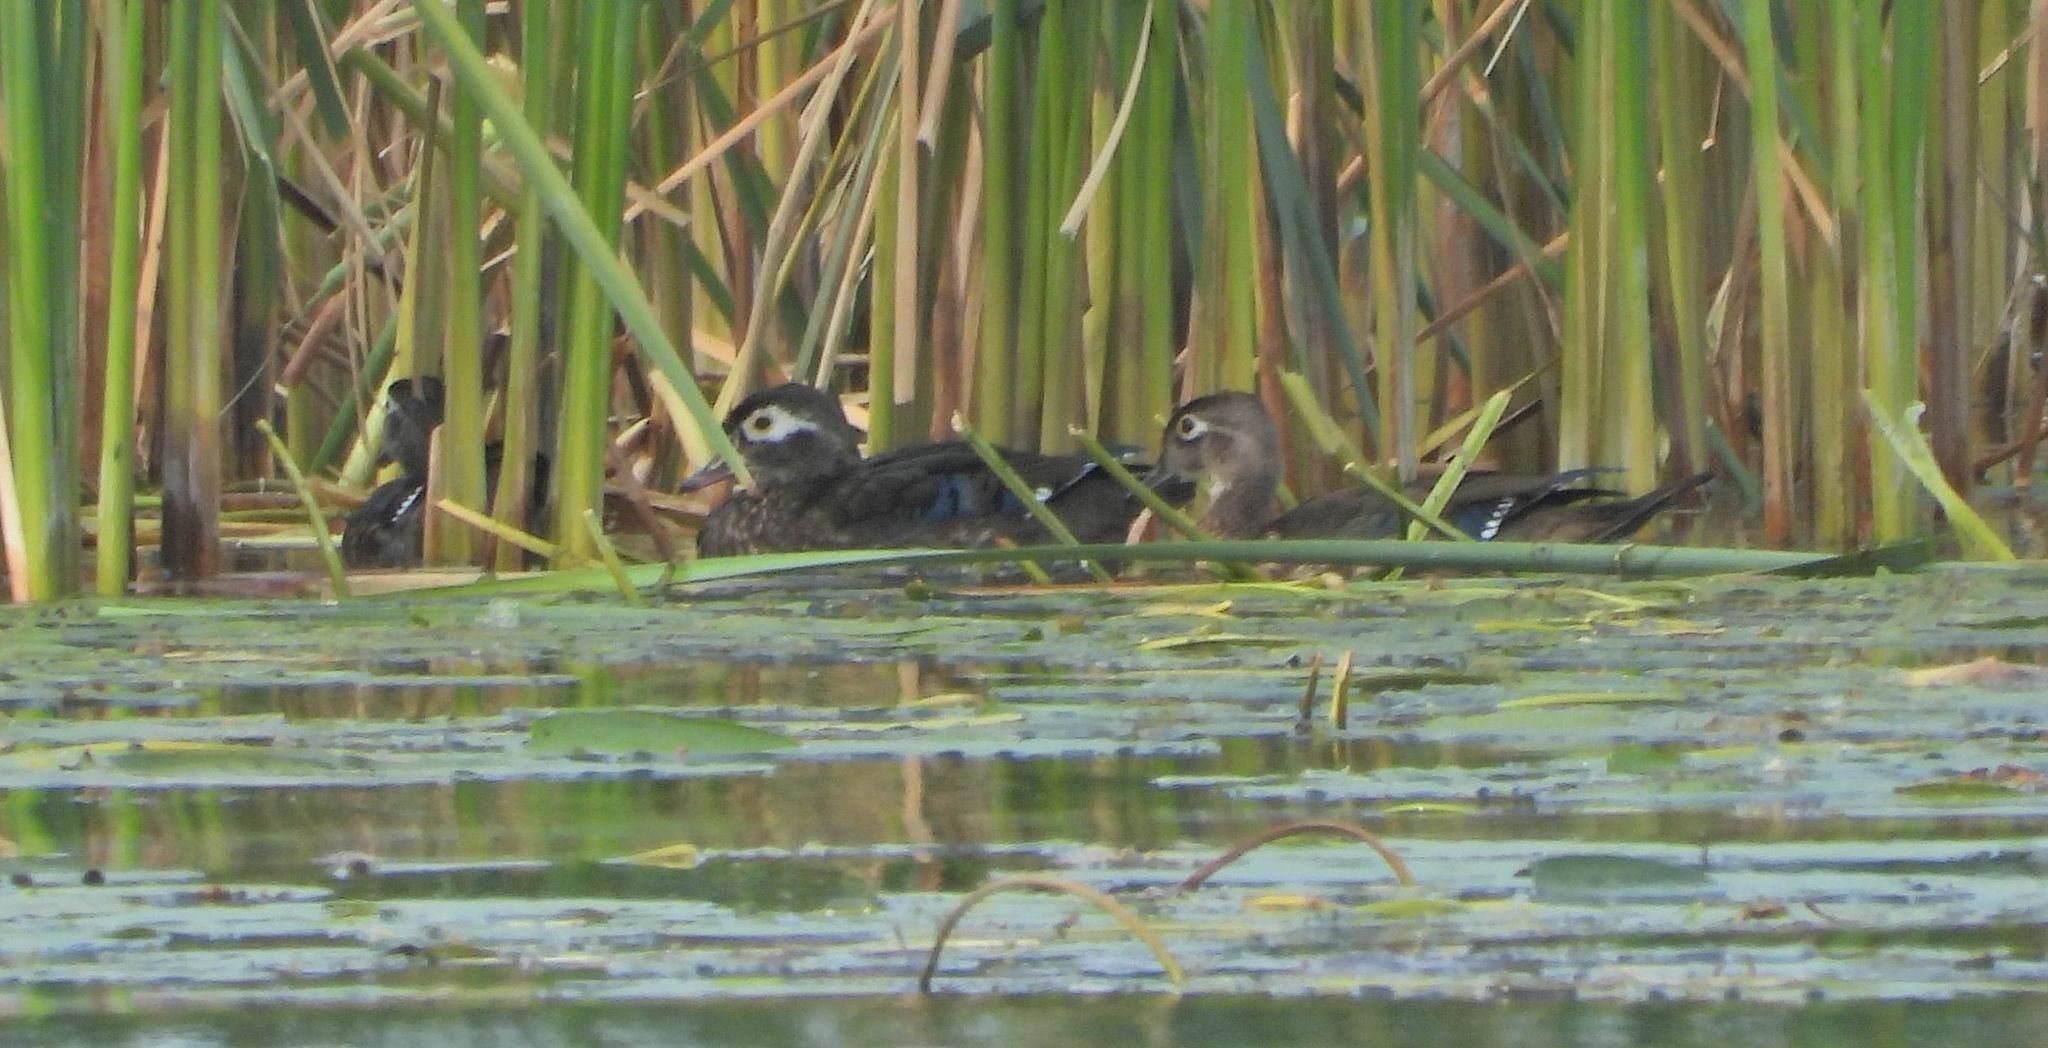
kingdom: Animalia
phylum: Chordata
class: Aves
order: Anseriformes
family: Anatidae
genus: Aix
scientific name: Aix sponsa
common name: Wood duck
